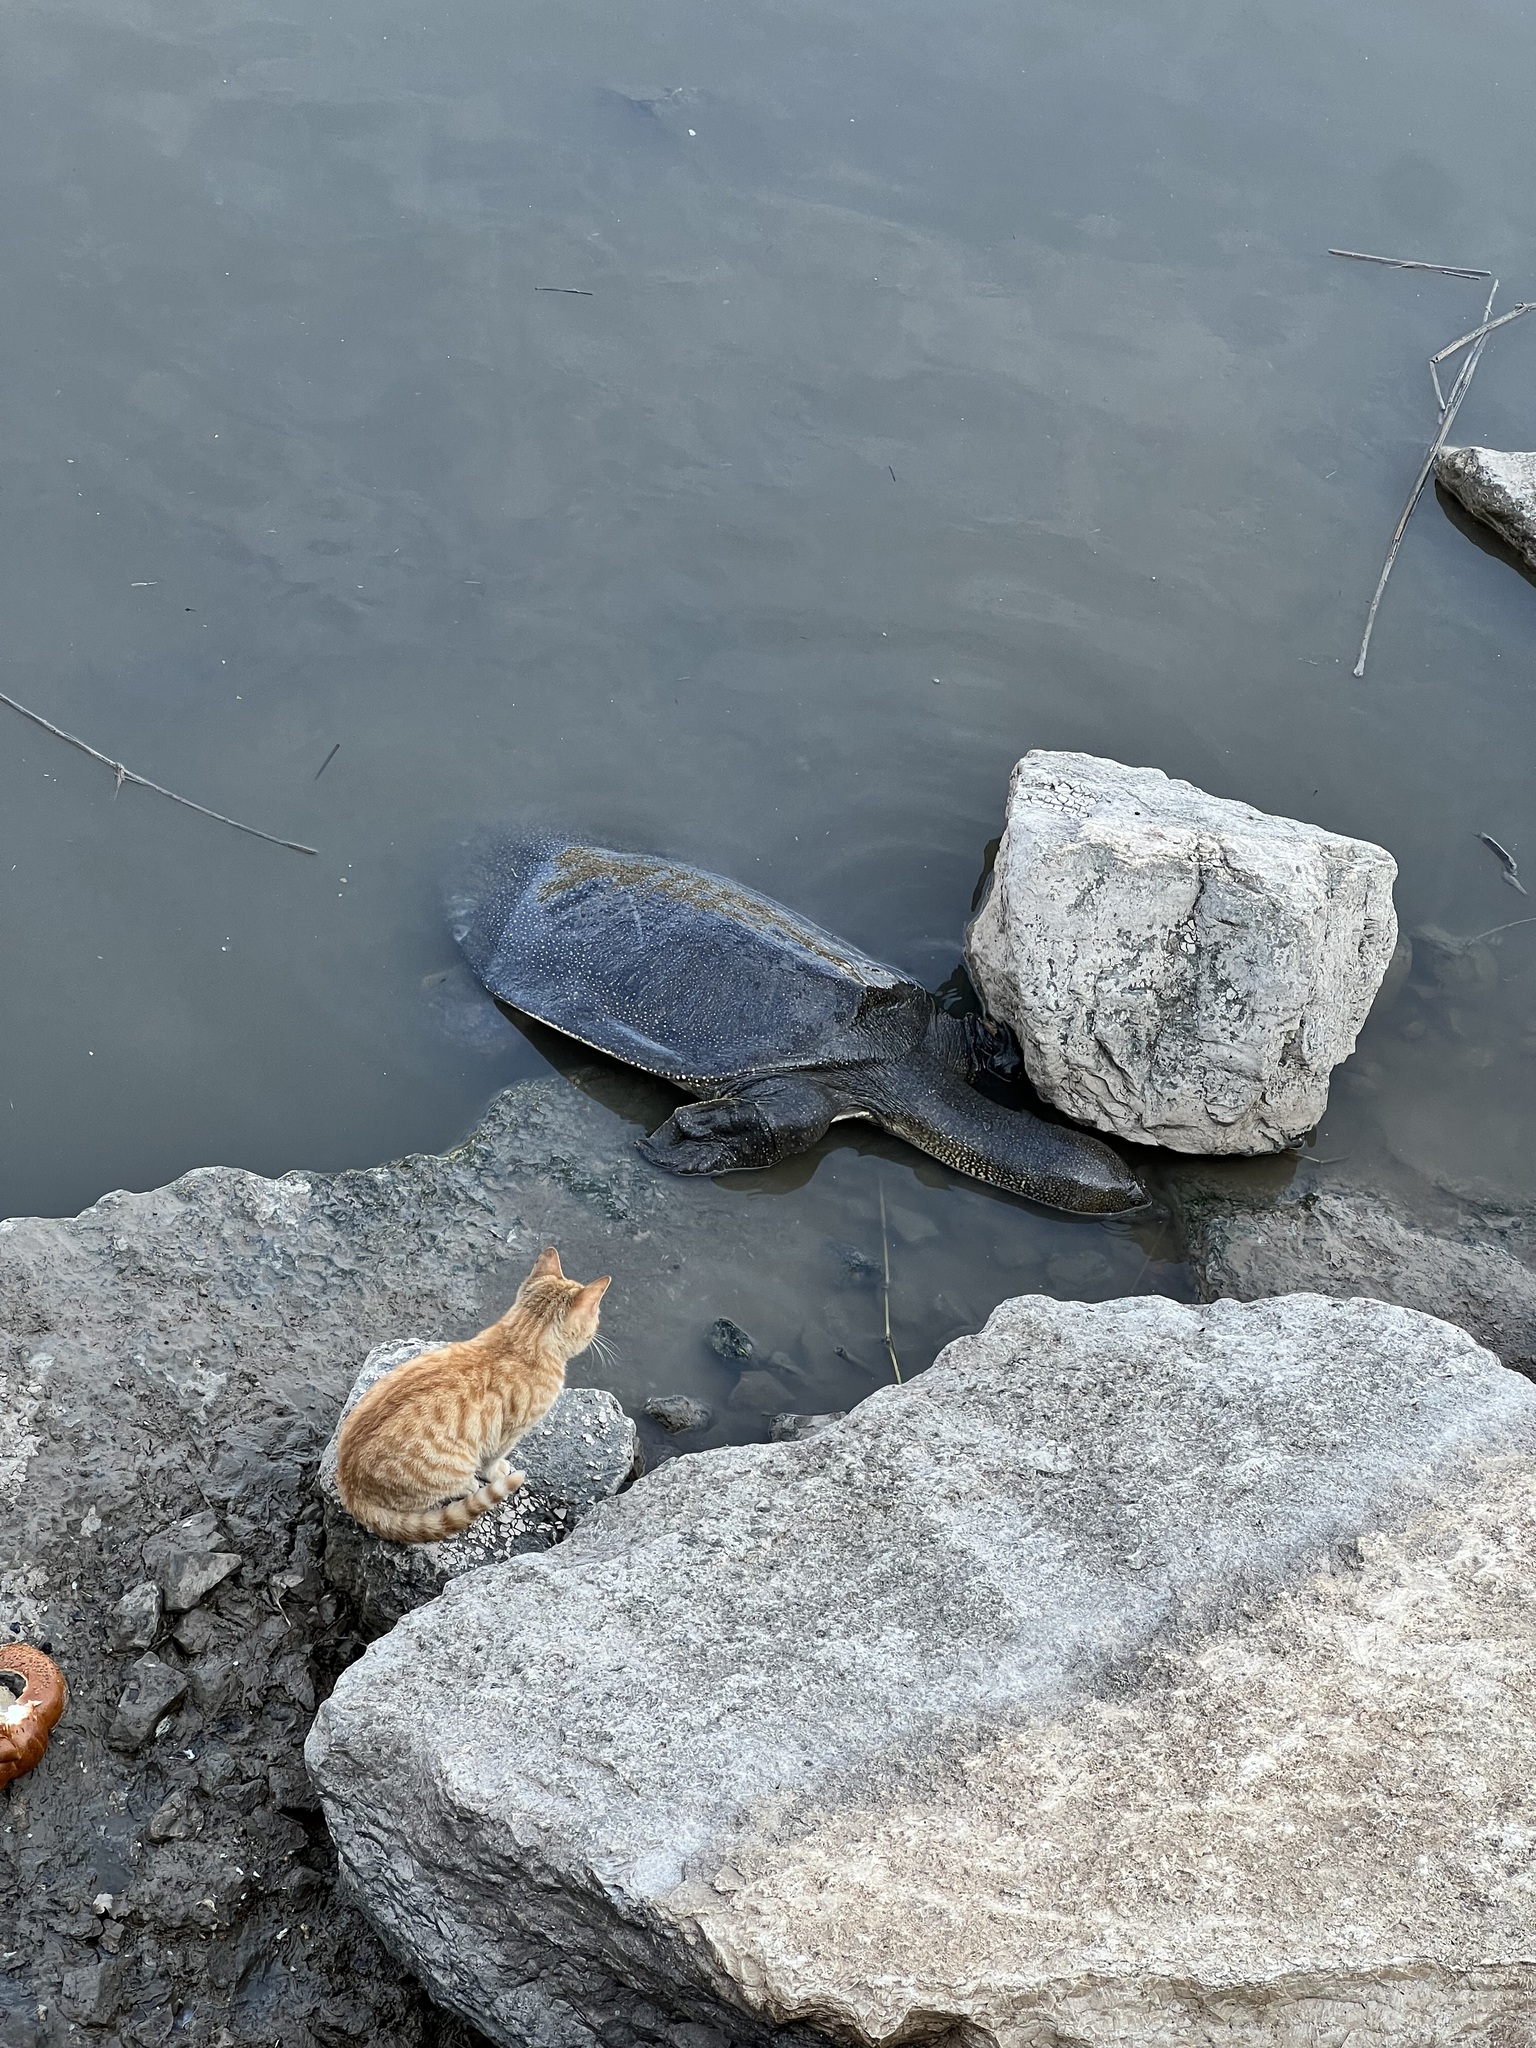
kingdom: Animalia
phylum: Chordata
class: Testudines
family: Trionychidae
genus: Trionyx
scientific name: Trionyx triunguis
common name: African softshell turtle
